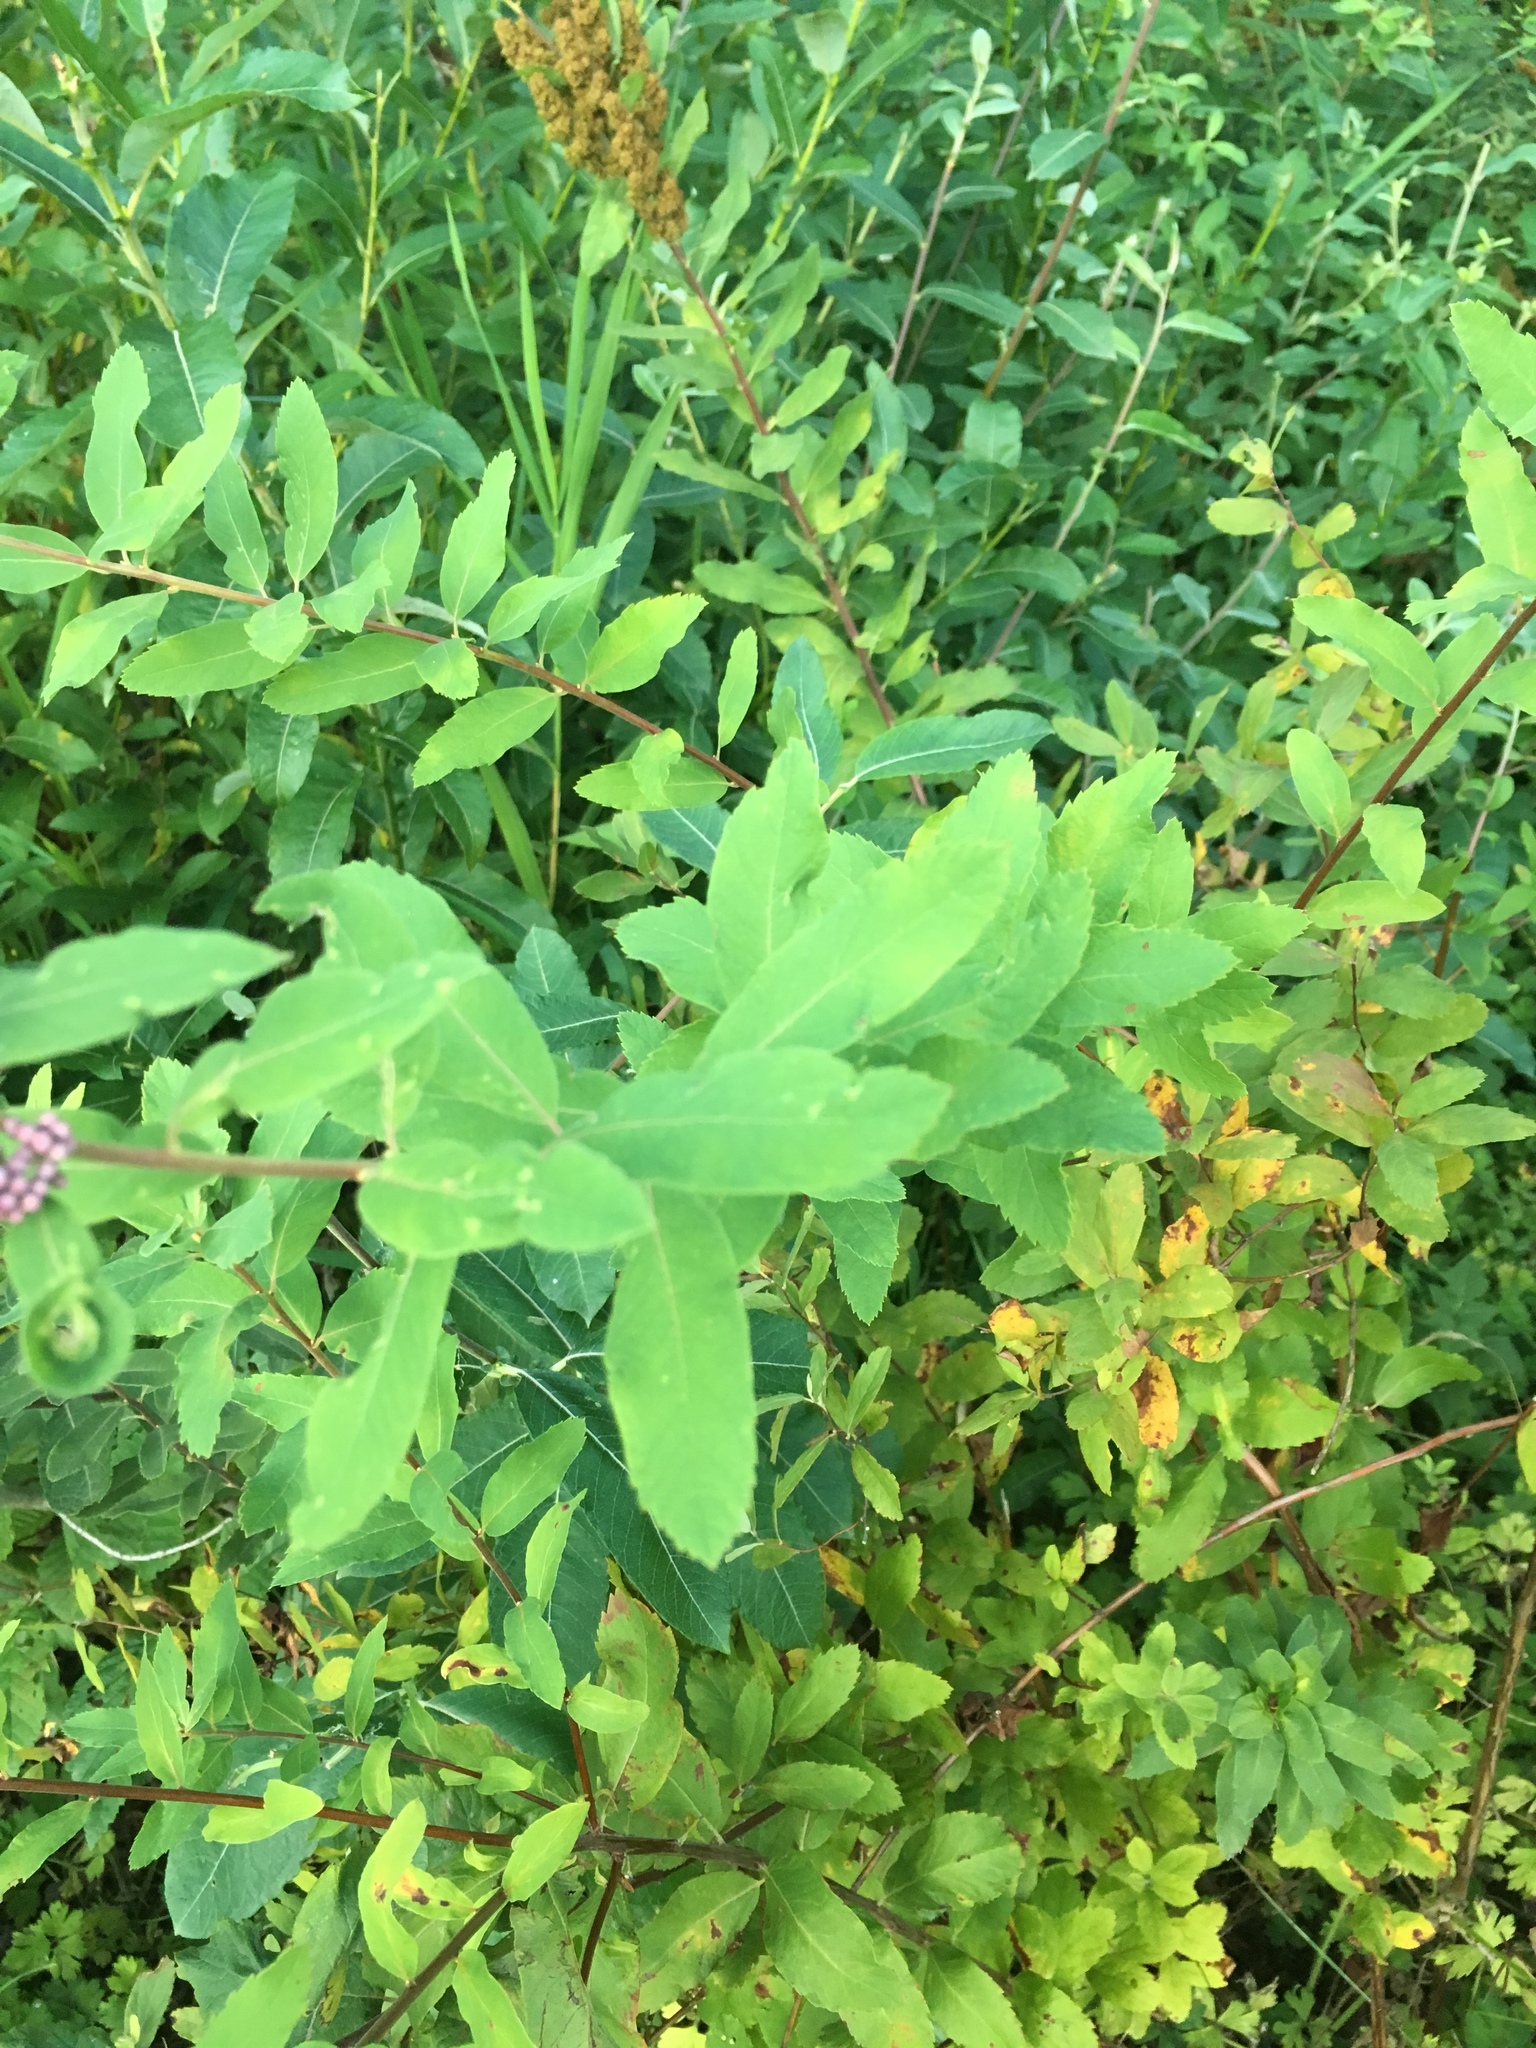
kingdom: Plantae
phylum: Tracheophyta
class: Magnoliopsida
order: Rosales
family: Rosaceae
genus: Spiraea
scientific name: Spiraea douglasii
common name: Steeplebush
